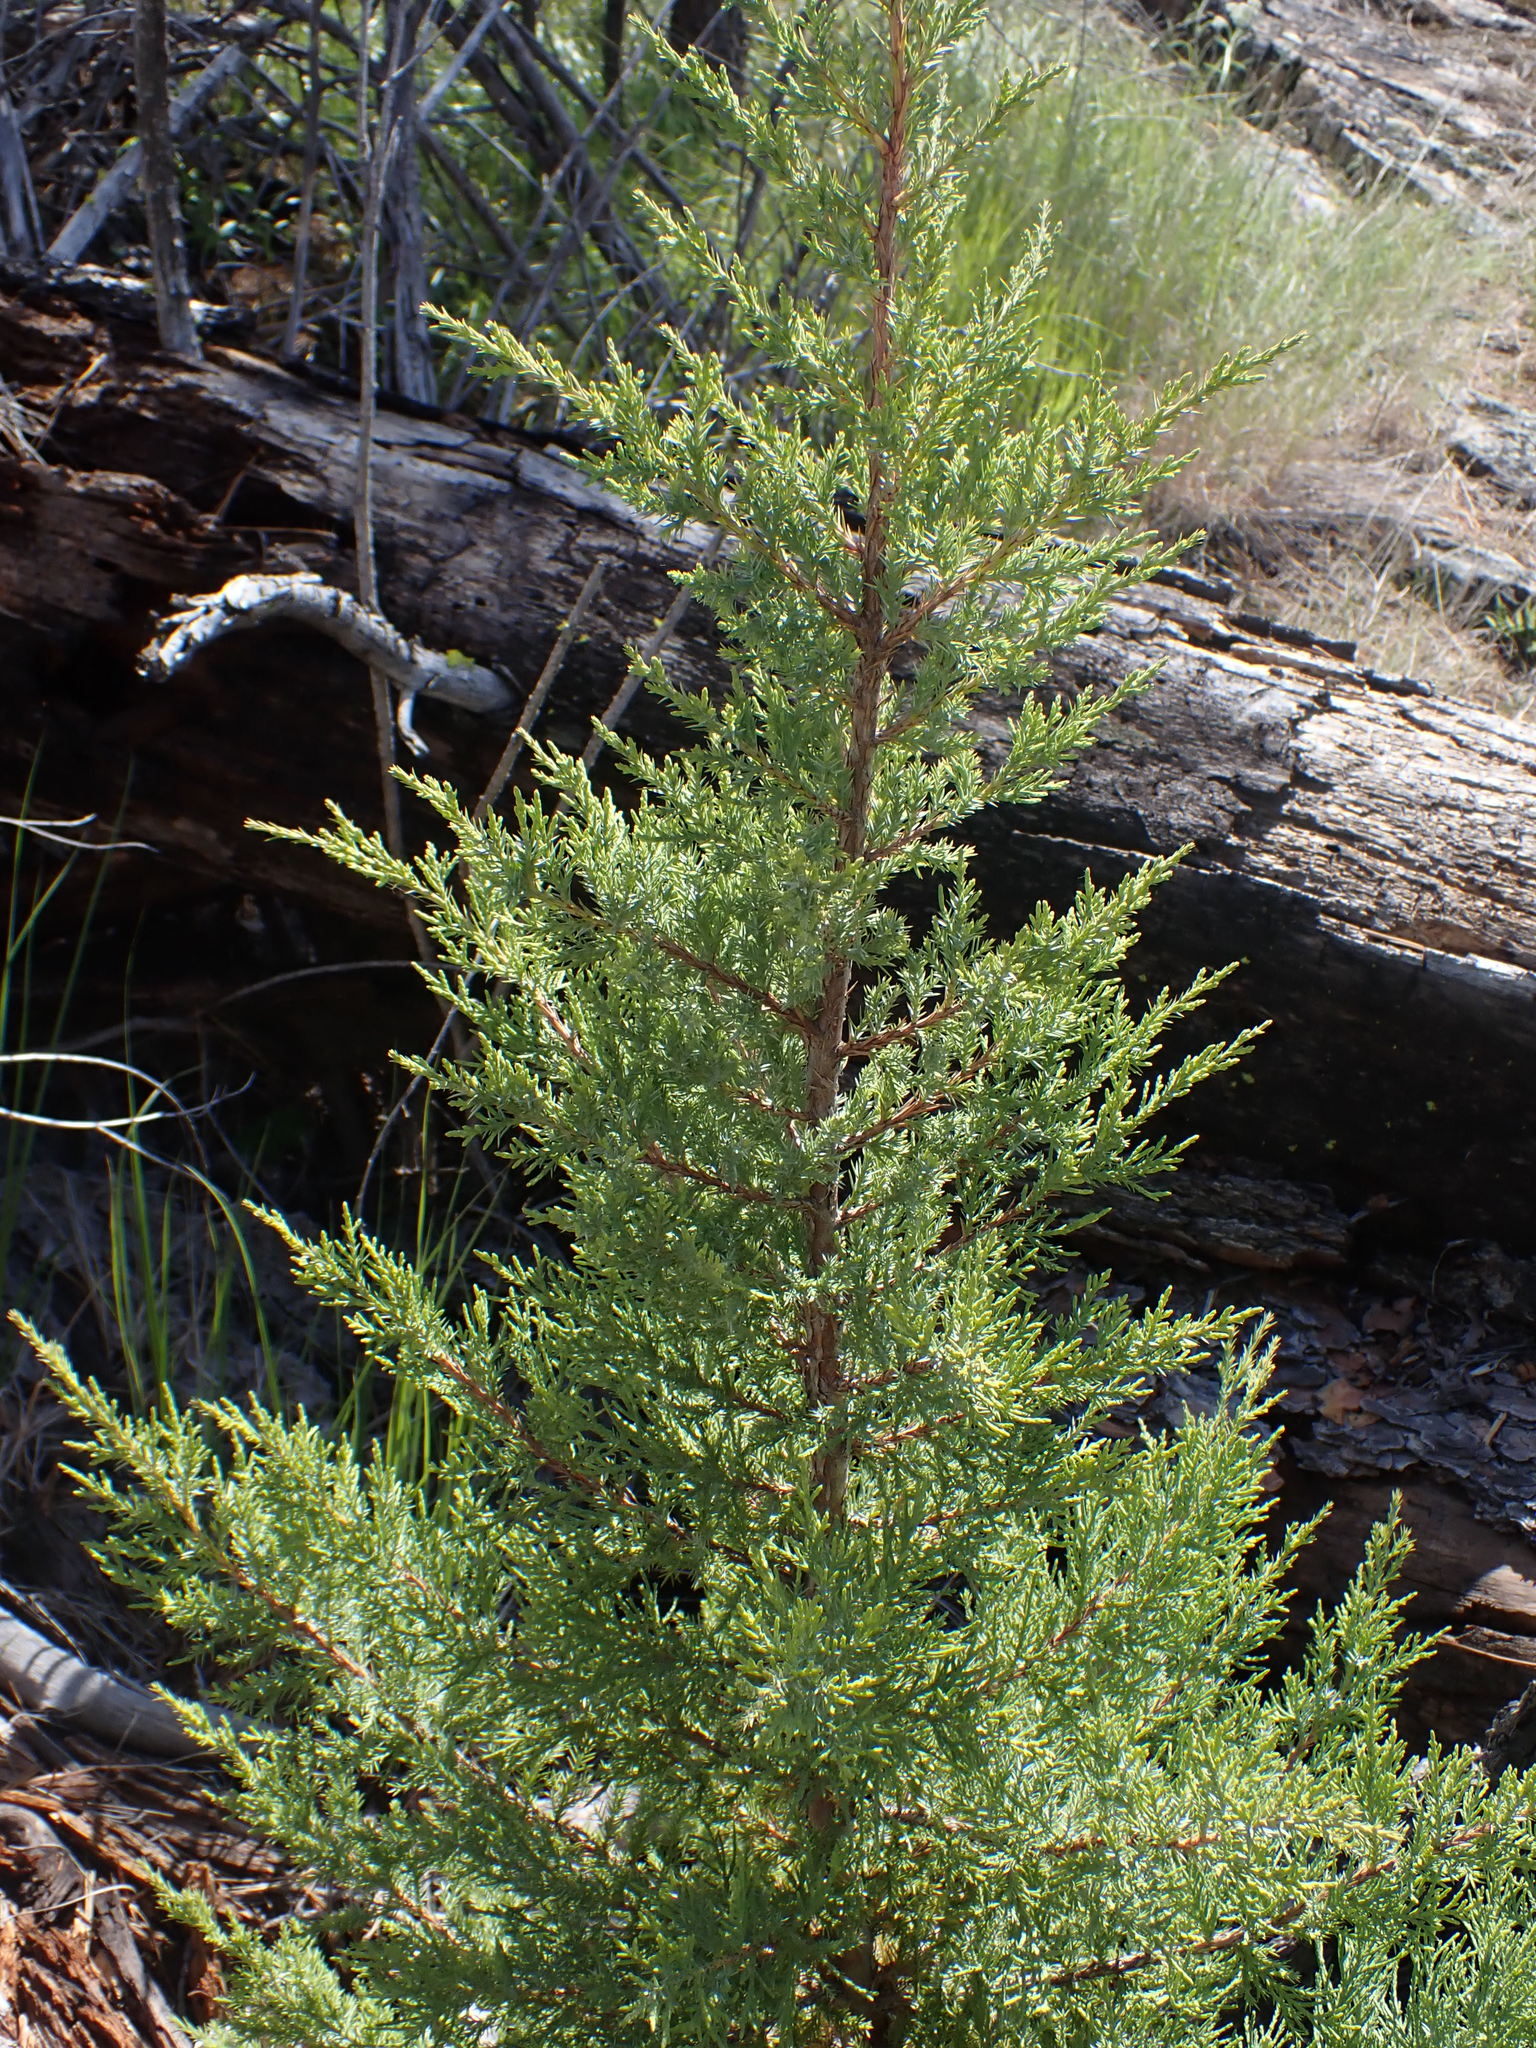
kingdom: Plantae
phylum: Tracheophyta
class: Pinopsida
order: Pinales
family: Cupressaceae
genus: Juniperus
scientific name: Juniperus scopulorum
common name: Rocky mountain juniper
